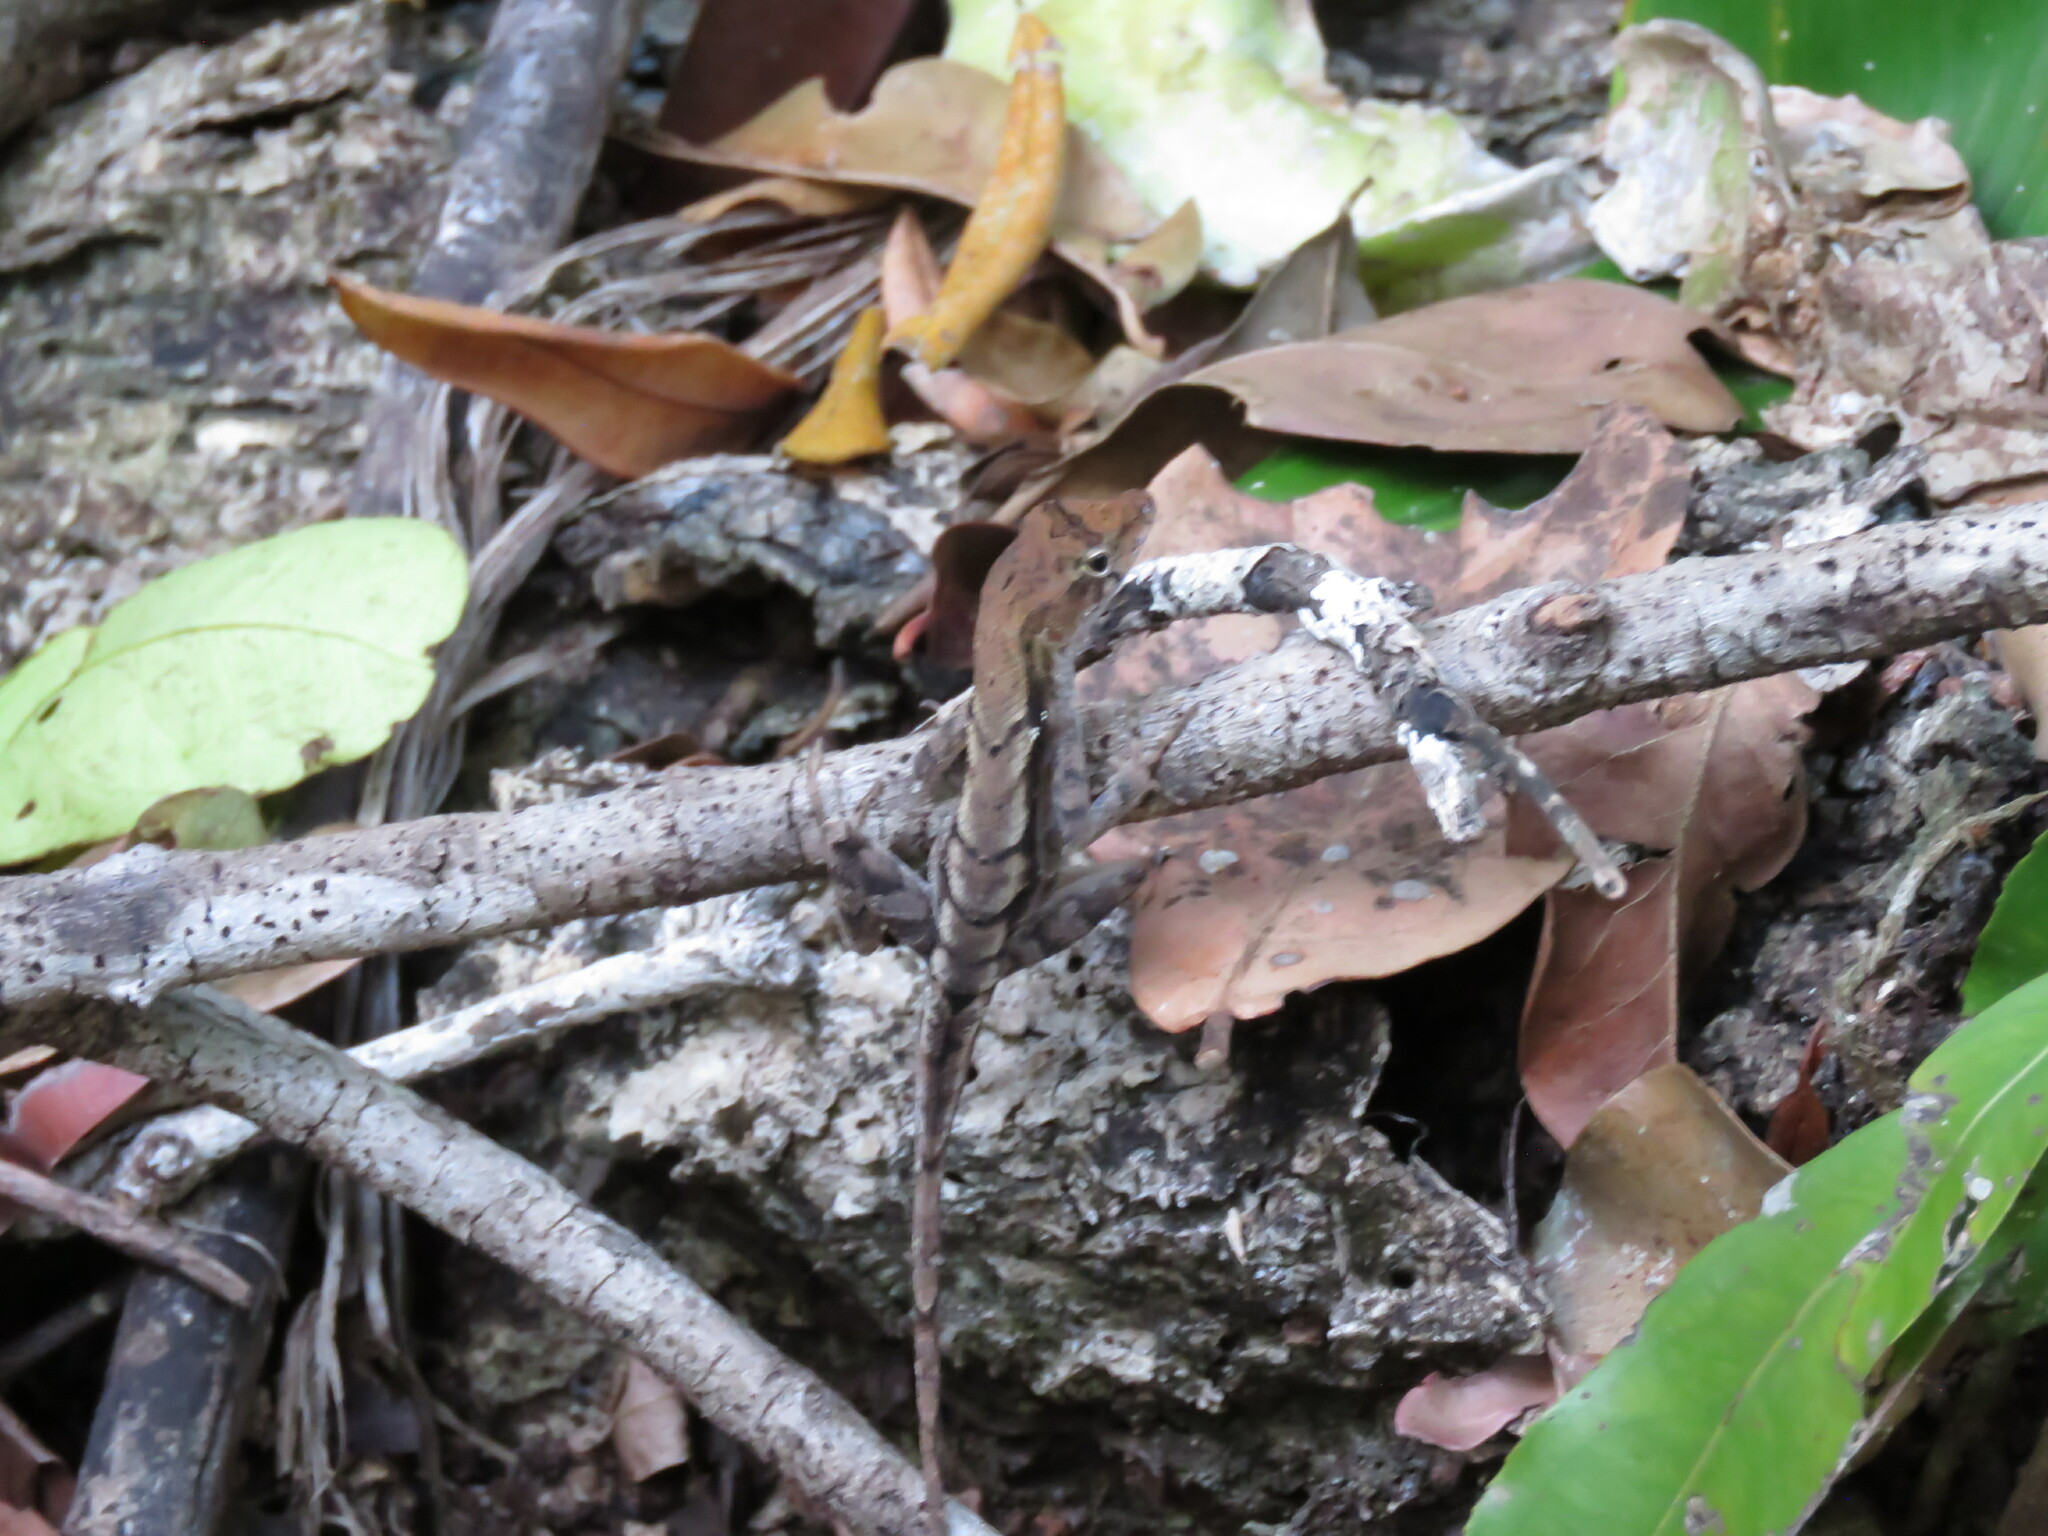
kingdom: Animalia
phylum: Chordata
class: Squamata
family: Dactyloidae
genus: Anolis
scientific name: Anolis tropidonotus
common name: Greater scaly anole
